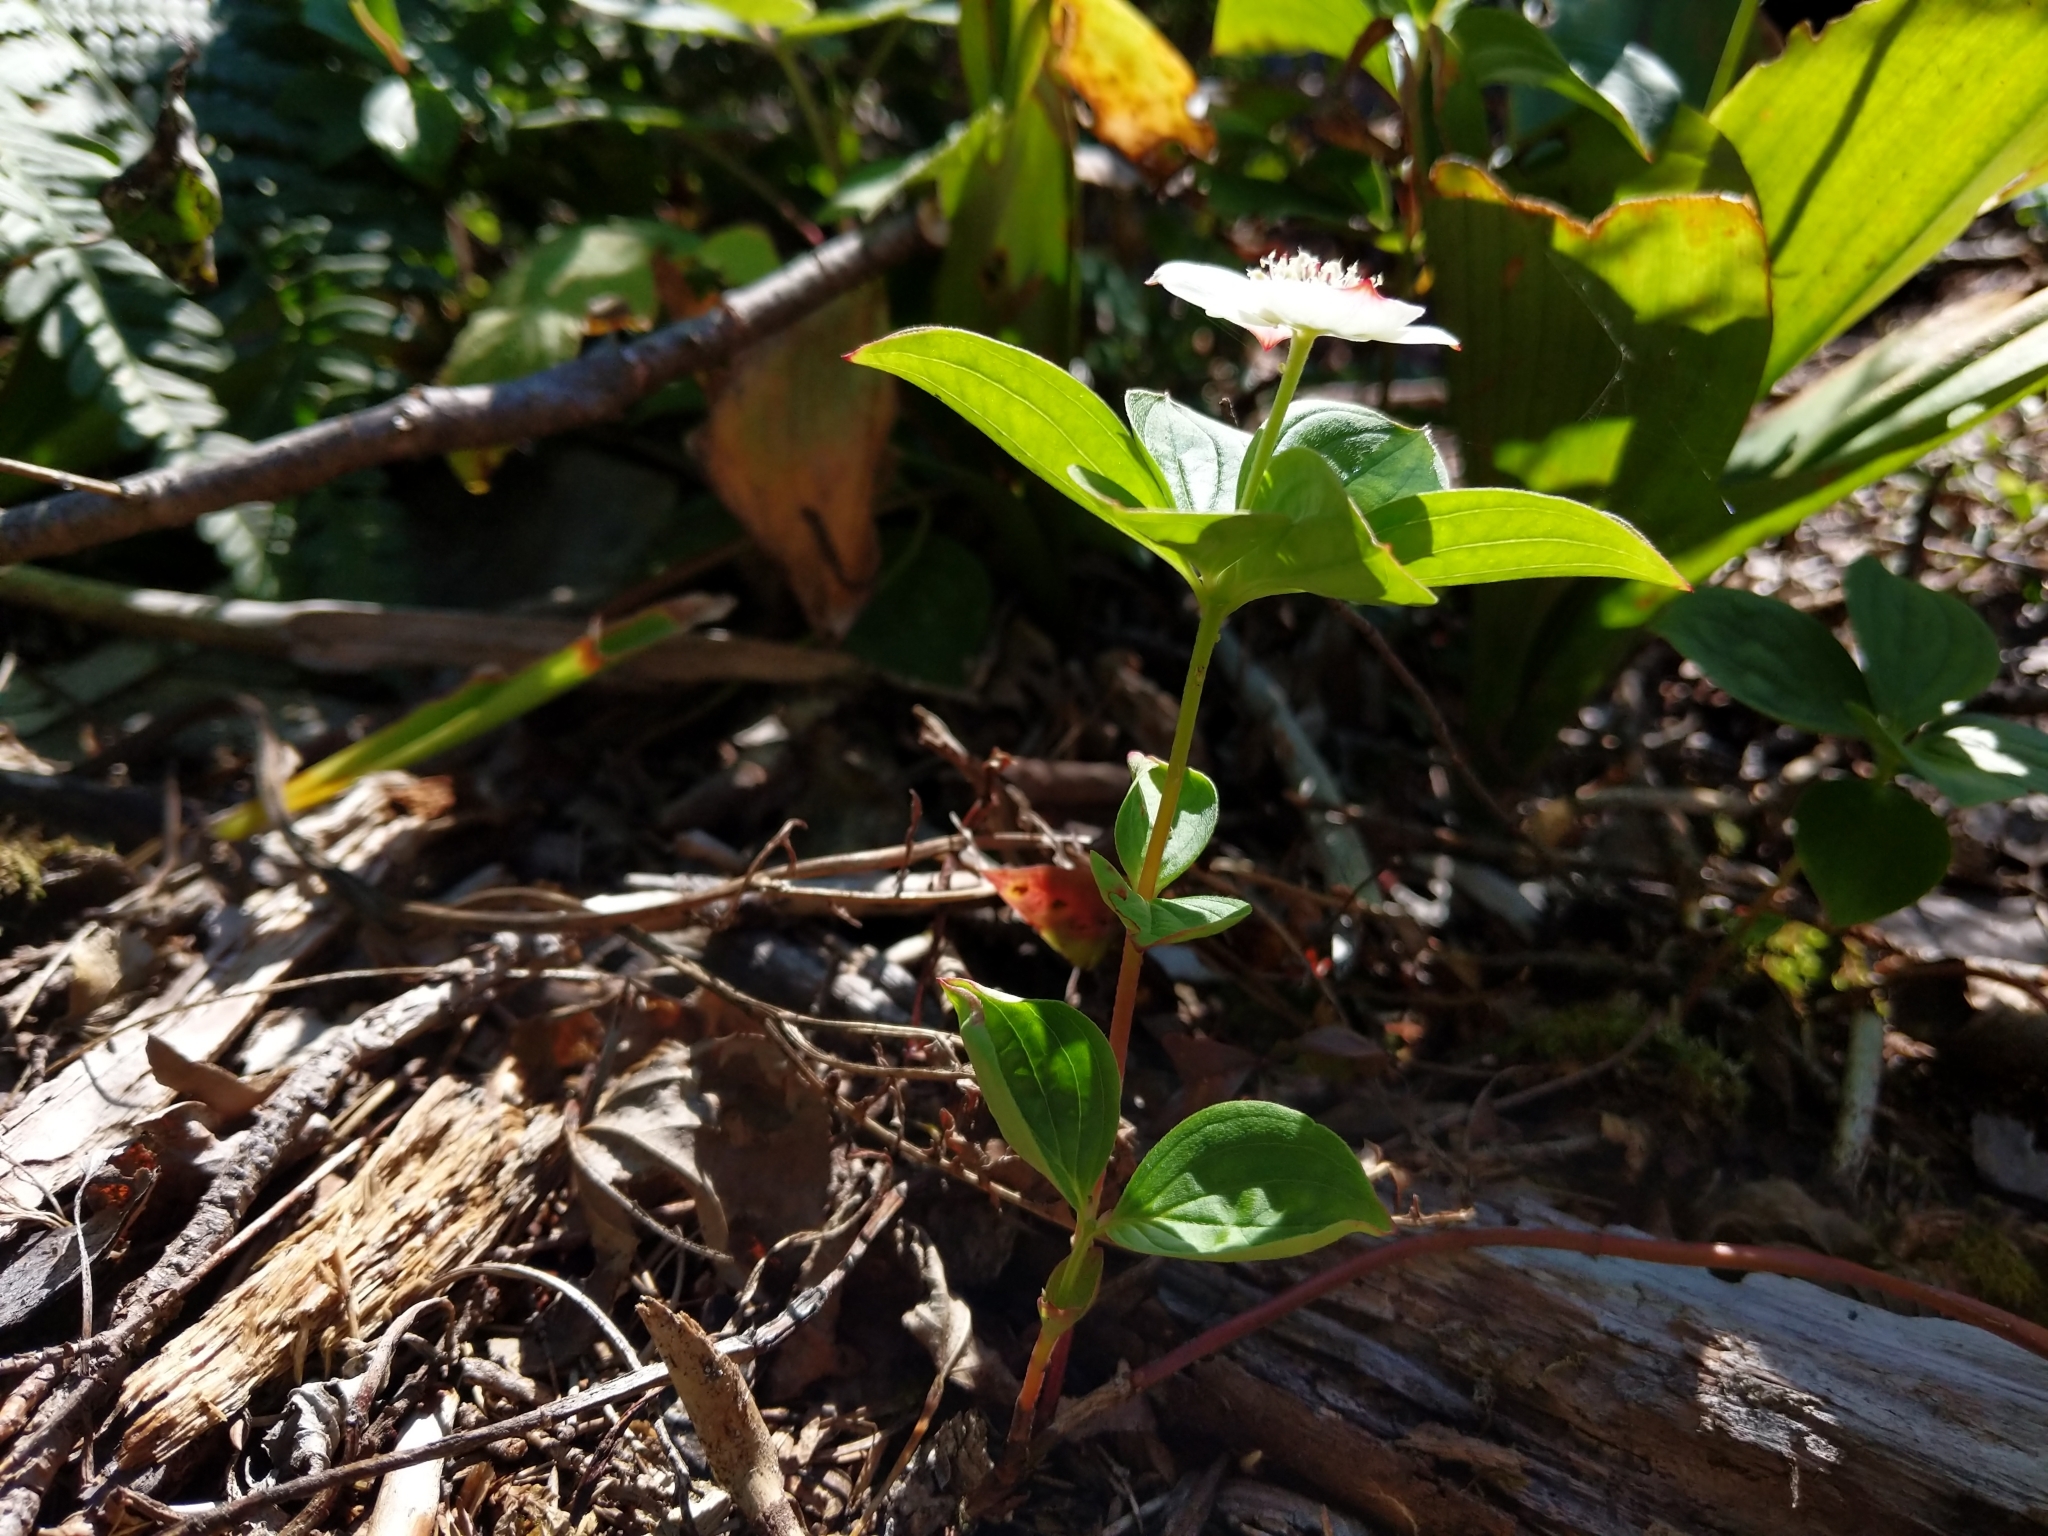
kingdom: Plantae
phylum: Tracheophyta
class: Magnoliopsida
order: Cornales
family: Cornaceae
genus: Cornus
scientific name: Cornus canadensis
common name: Creeping dogwood
